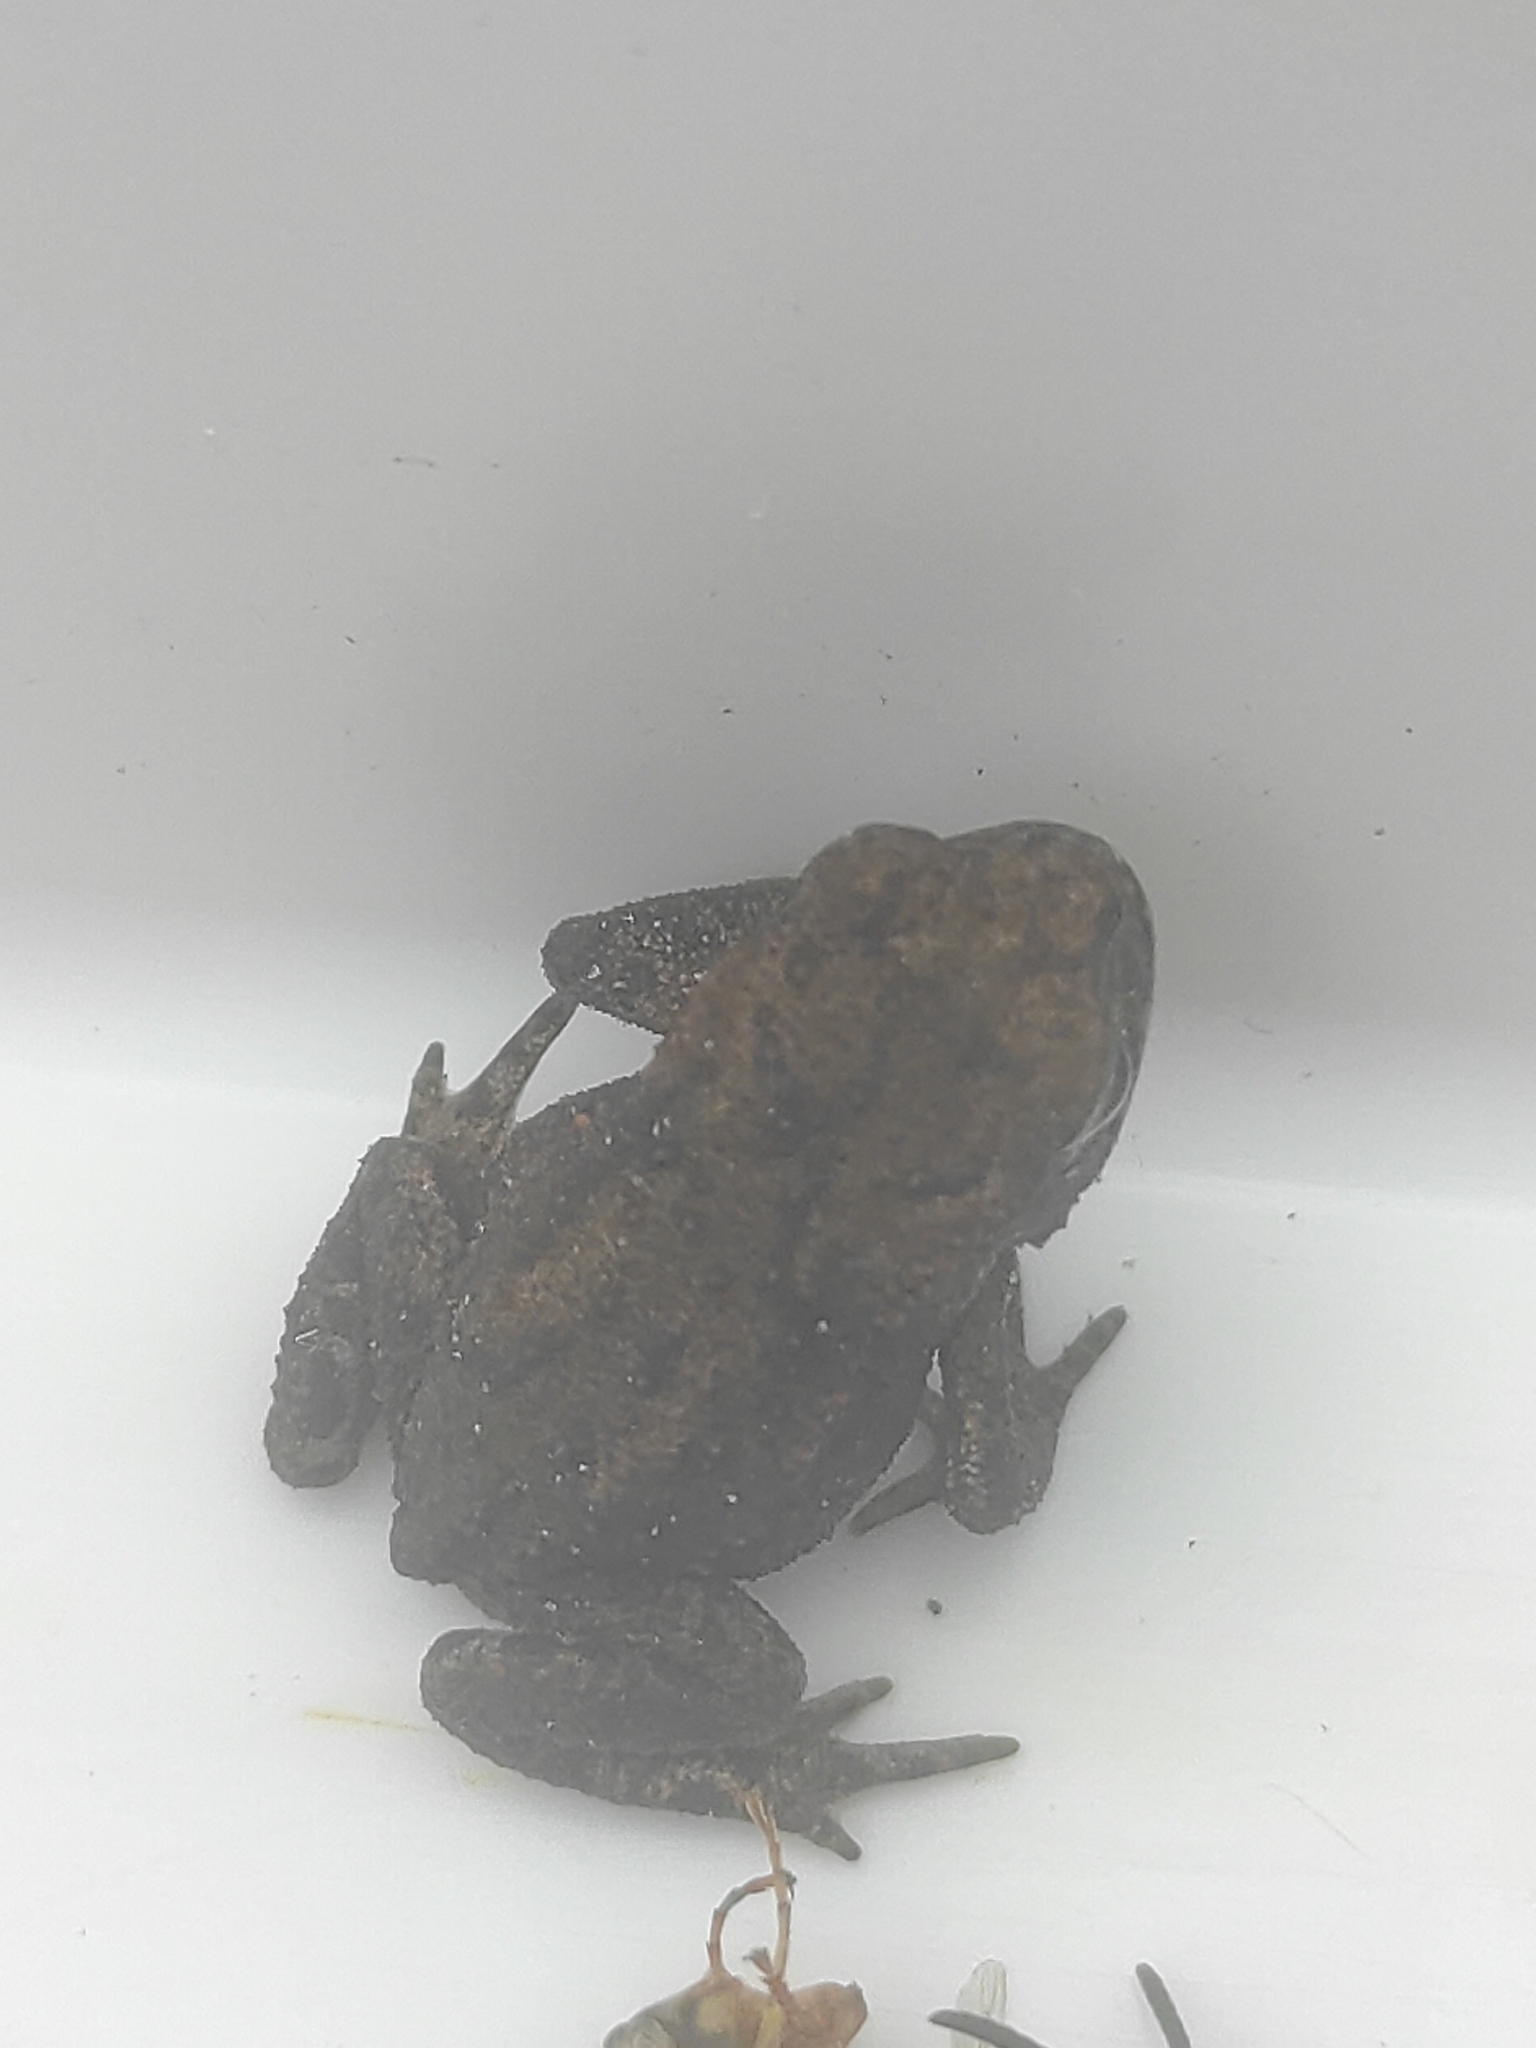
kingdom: Animalia
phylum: Chordata
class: Amphibia
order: Anura
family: Bufonidae
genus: Bufo
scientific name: Bufo bufo
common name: Common toad
